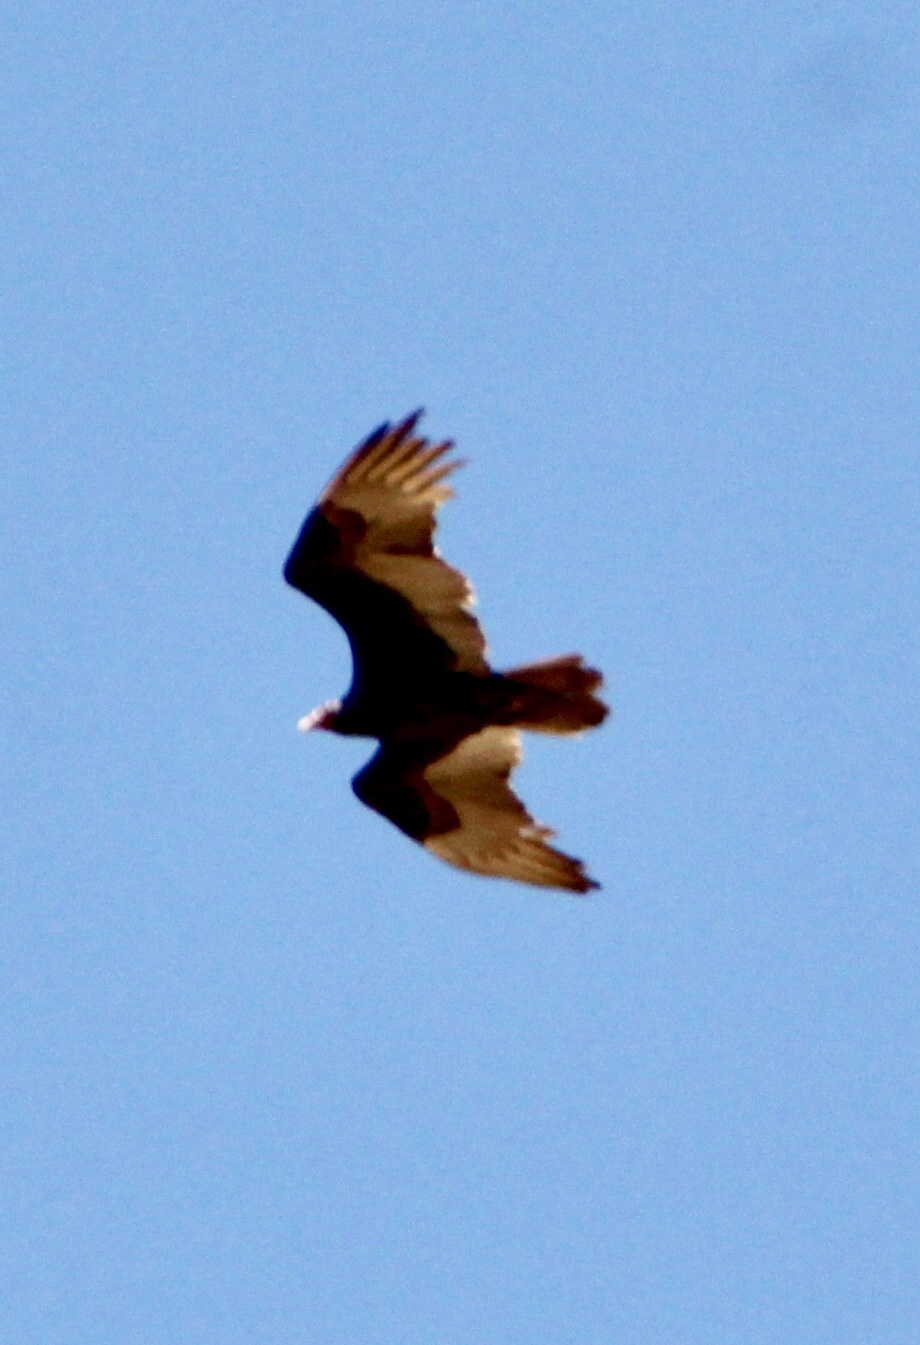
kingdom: Animalia
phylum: Chordata
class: Aves
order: Accipitriformes
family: Cathartidae
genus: Cathartes
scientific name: Cathartes aura
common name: Turkey vulture
